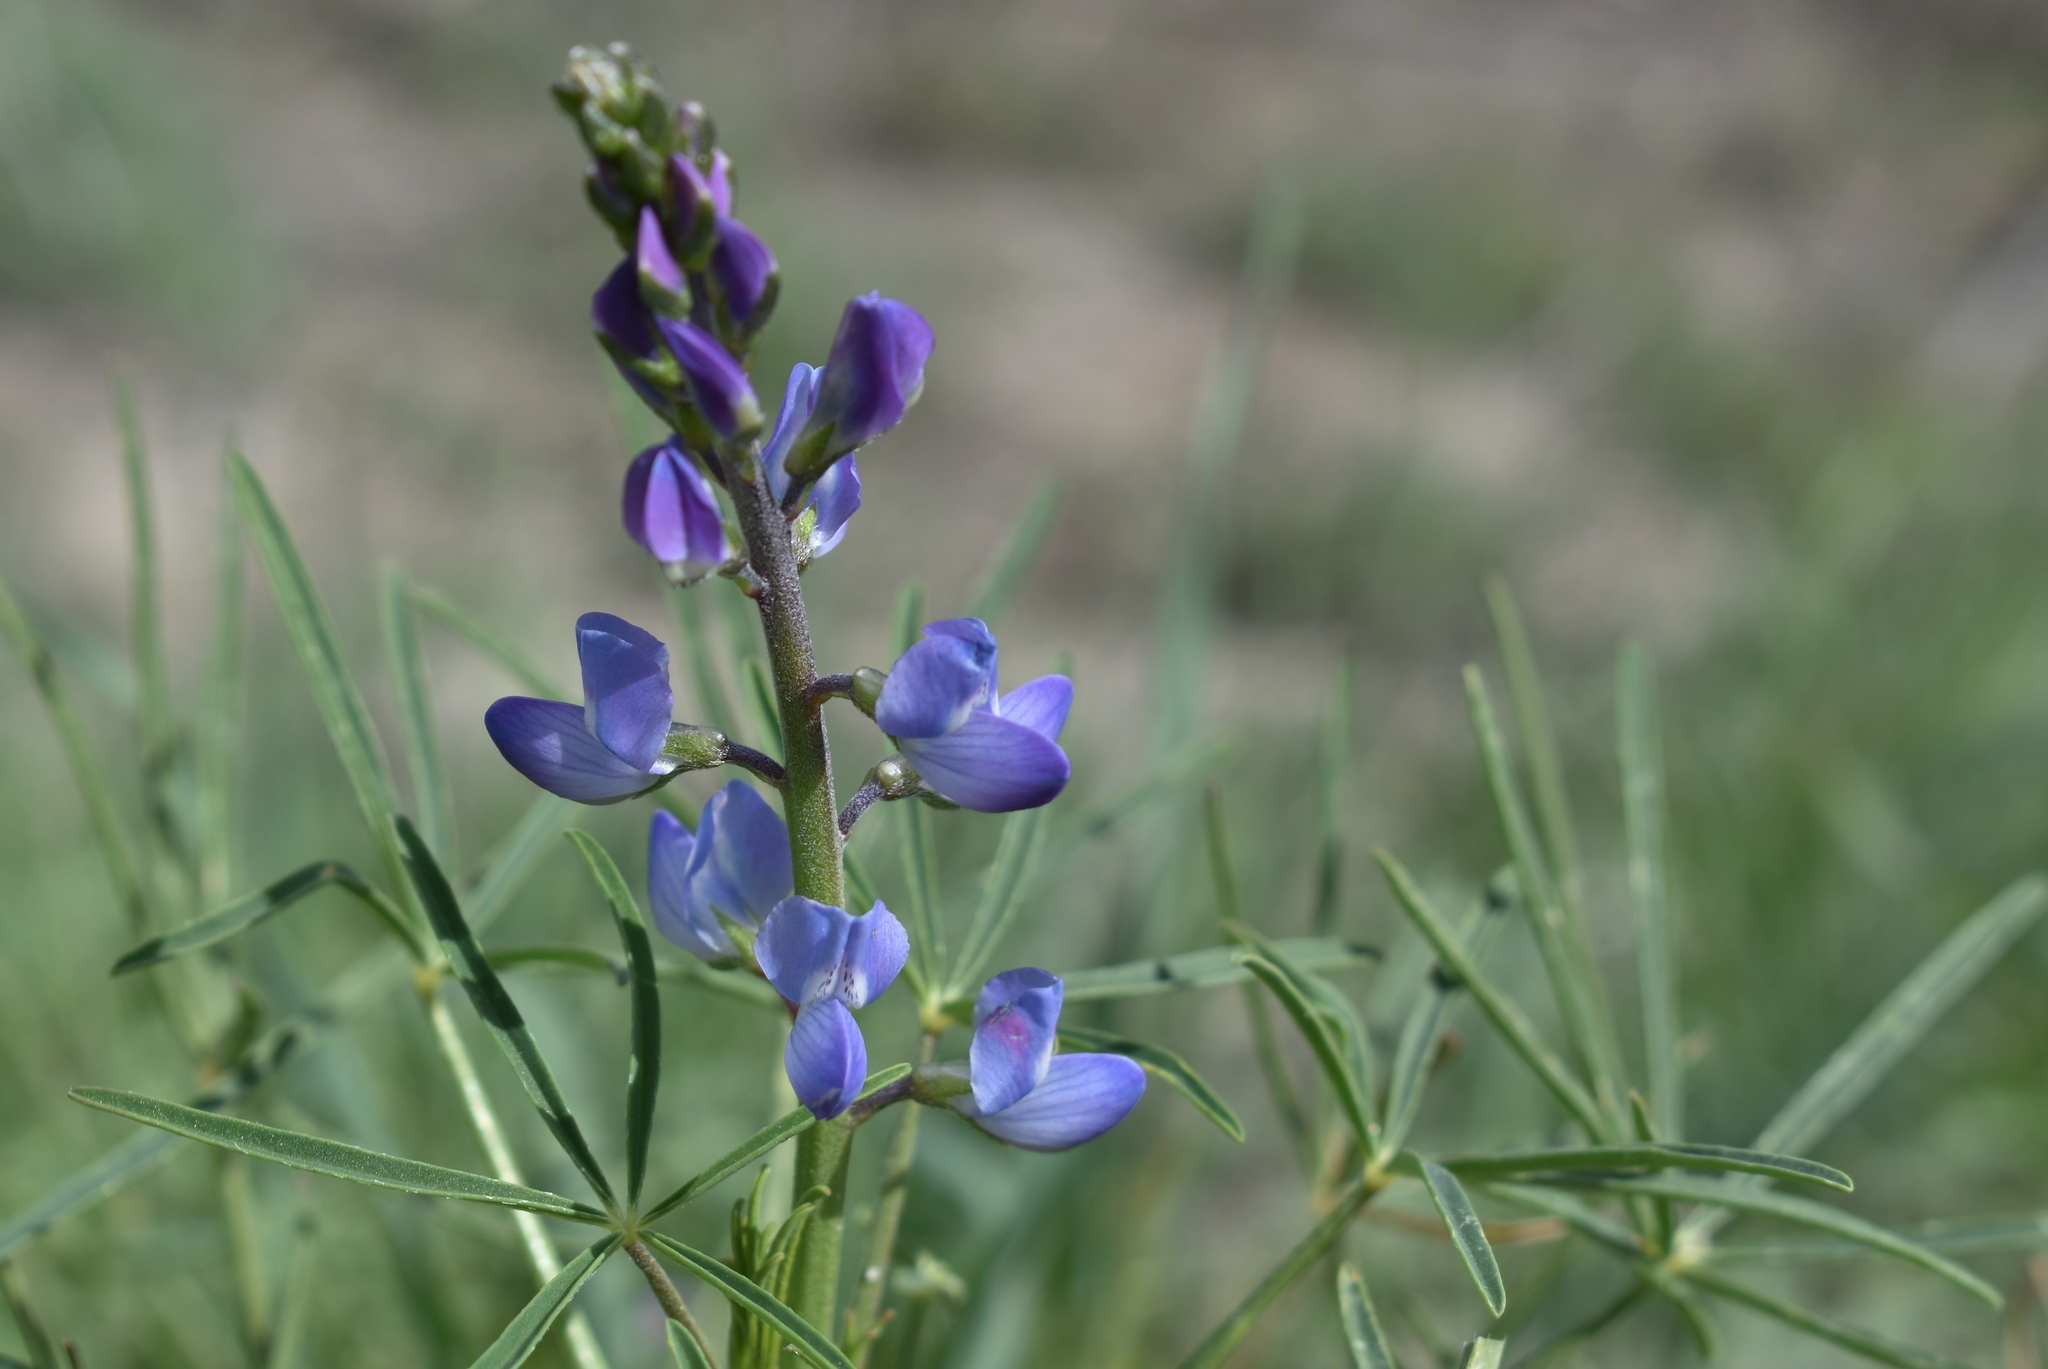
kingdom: Plantae
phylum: Tracheophyta
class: Magnoliopsida
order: Fabales
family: Fabaceae
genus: Lupinus
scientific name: Lupinus truncatus
